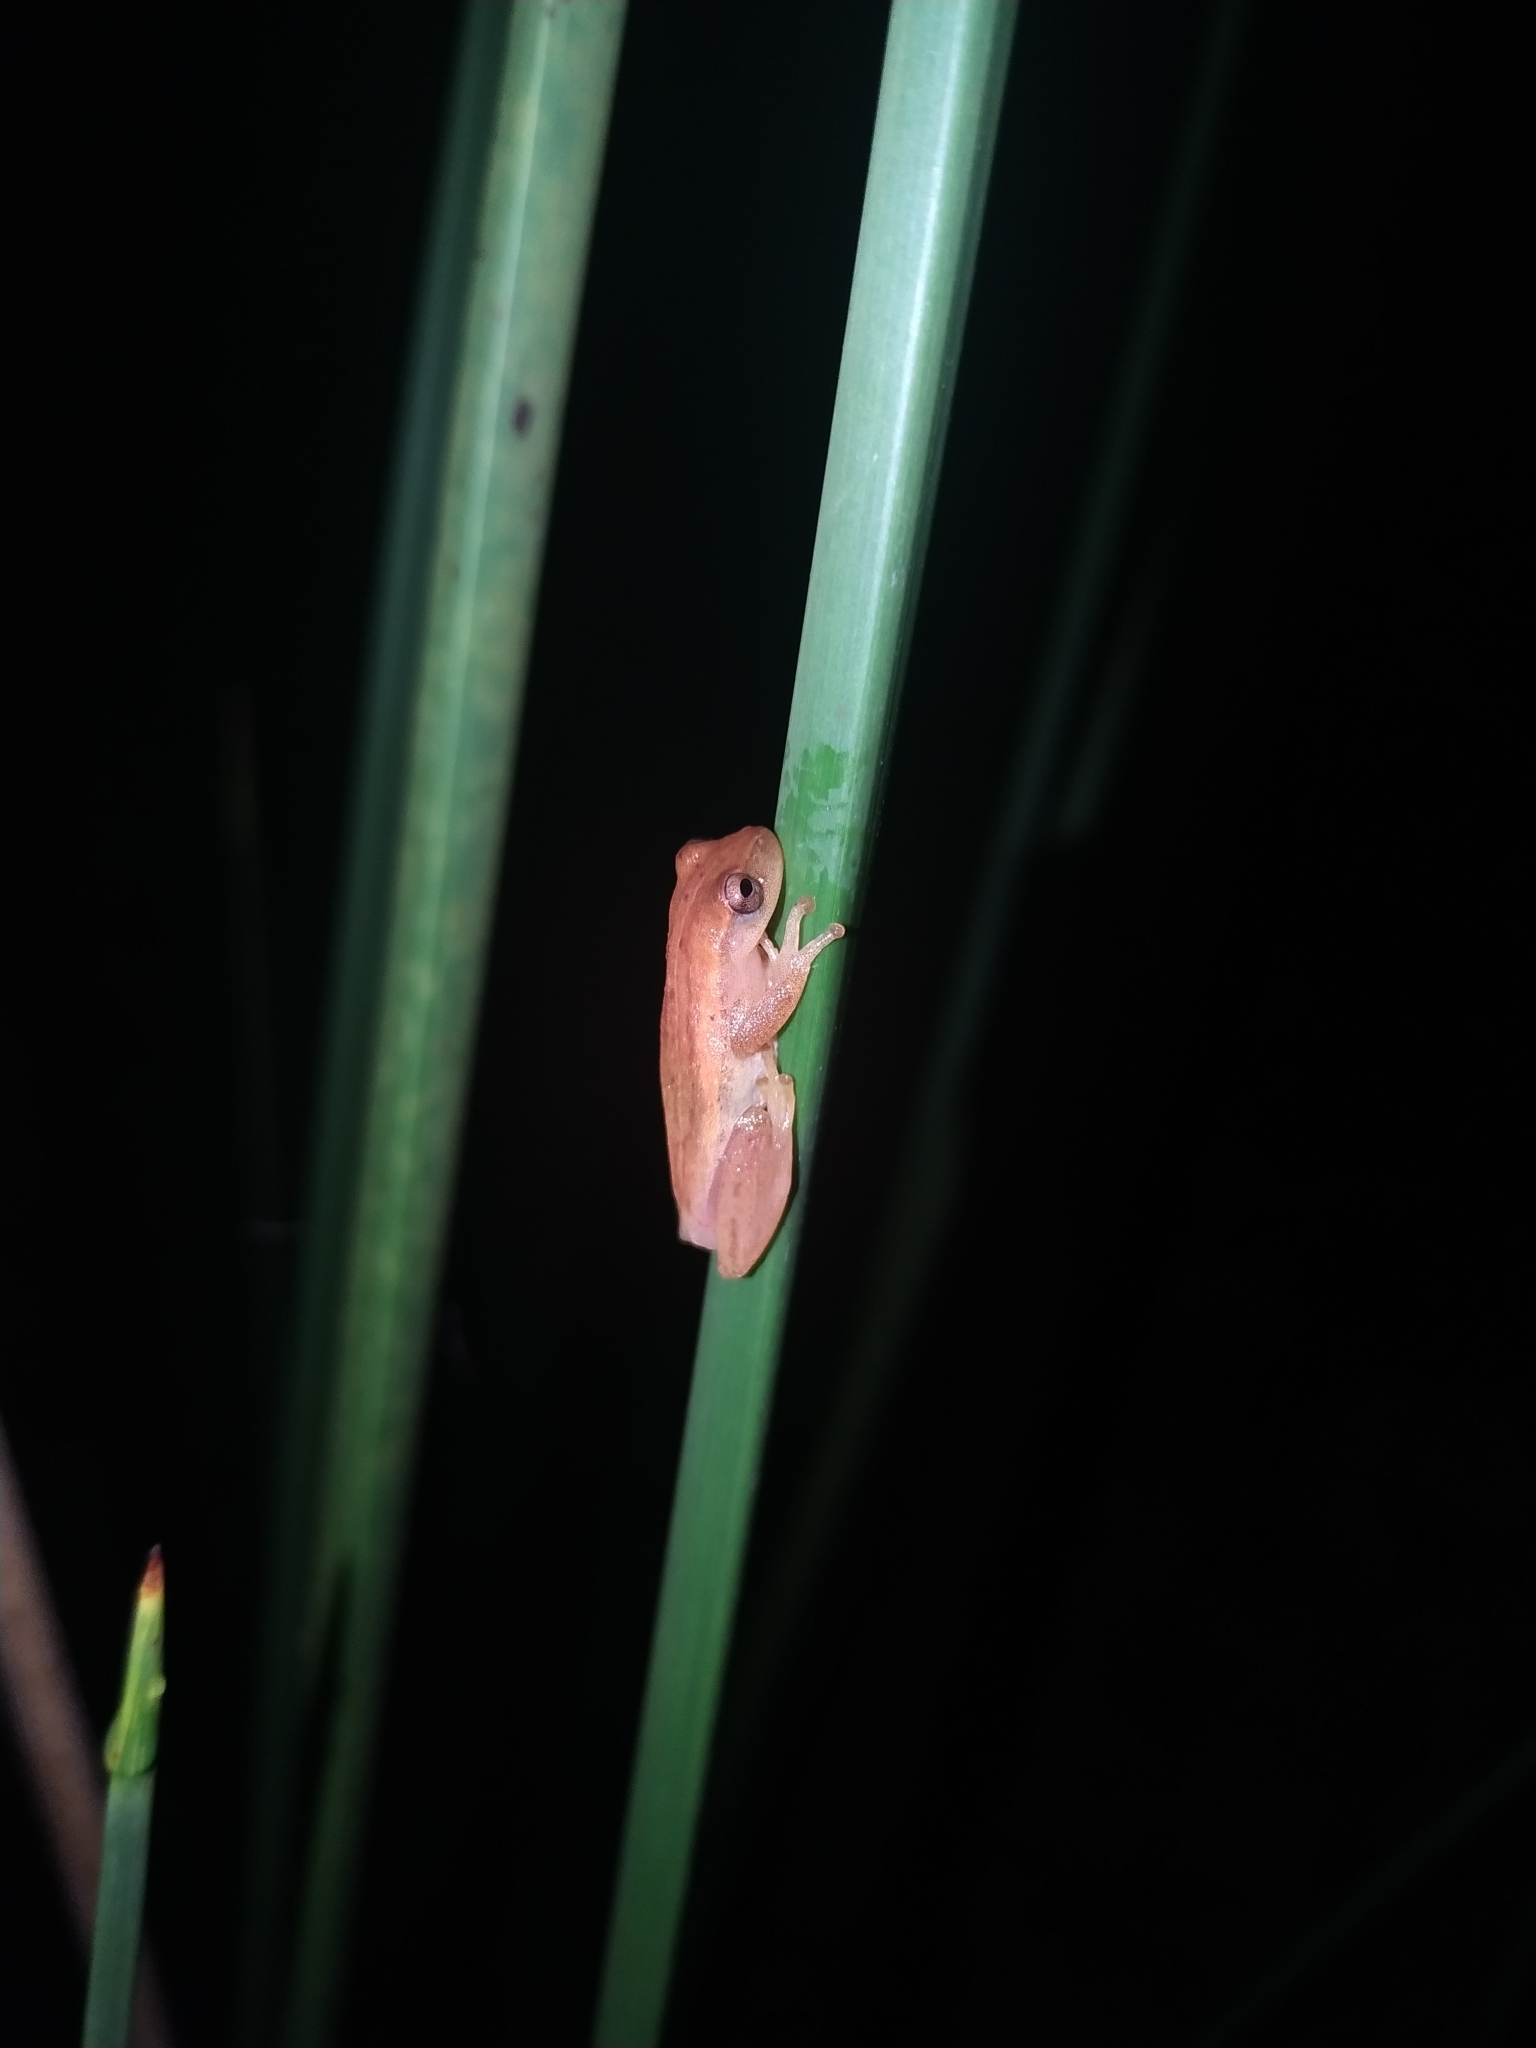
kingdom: Animalia
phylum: Chordata
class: Amphibia
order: Anura
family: Hylidae
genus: Dendropsophus
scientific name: Dendropsophus sanborni
